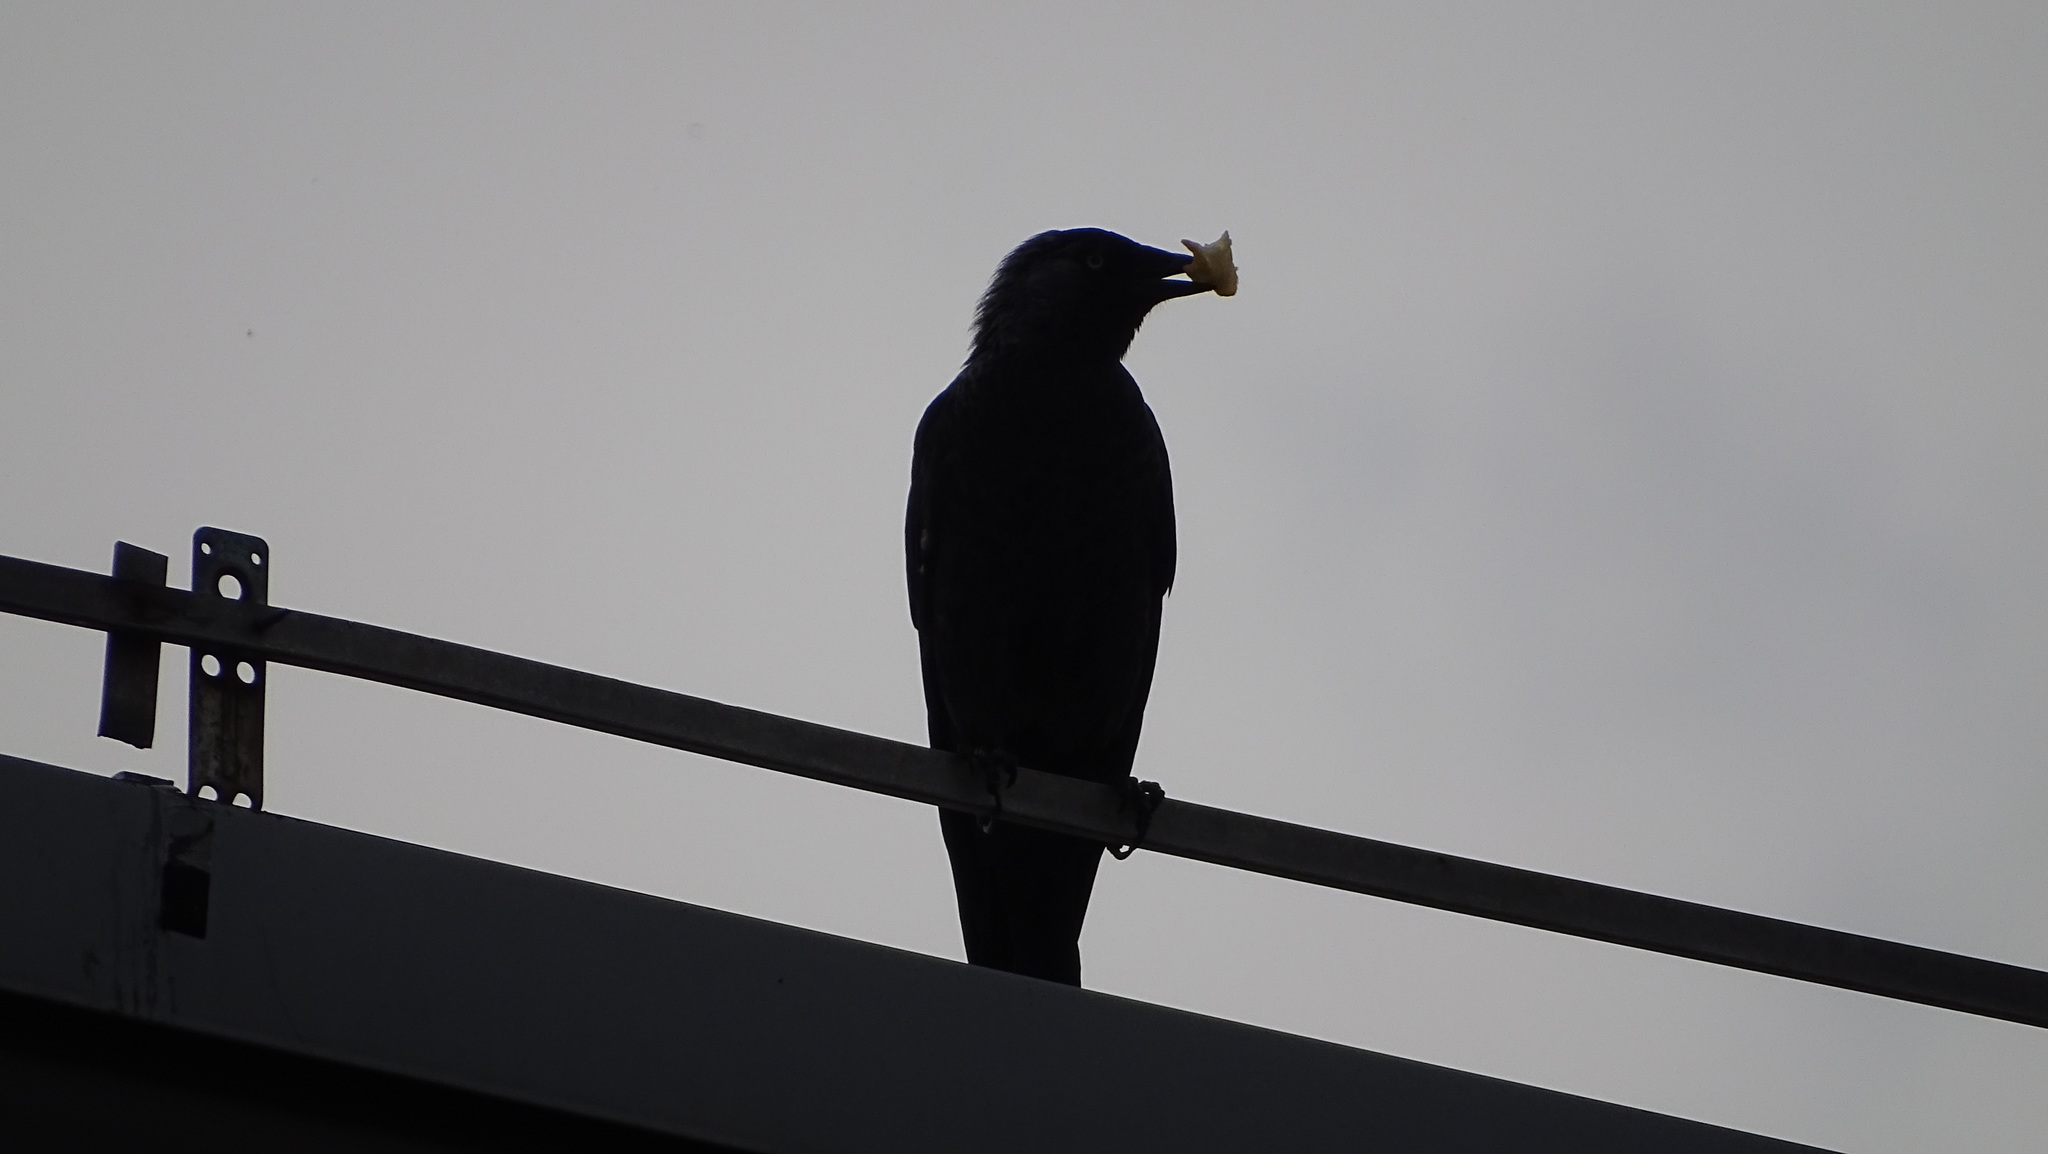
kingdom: Animalia
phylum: Chordata
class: Aves
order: Passeriformes
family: Corvidae
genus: Coloeus
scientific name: Coloeus monedula
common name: Western jackdaw
